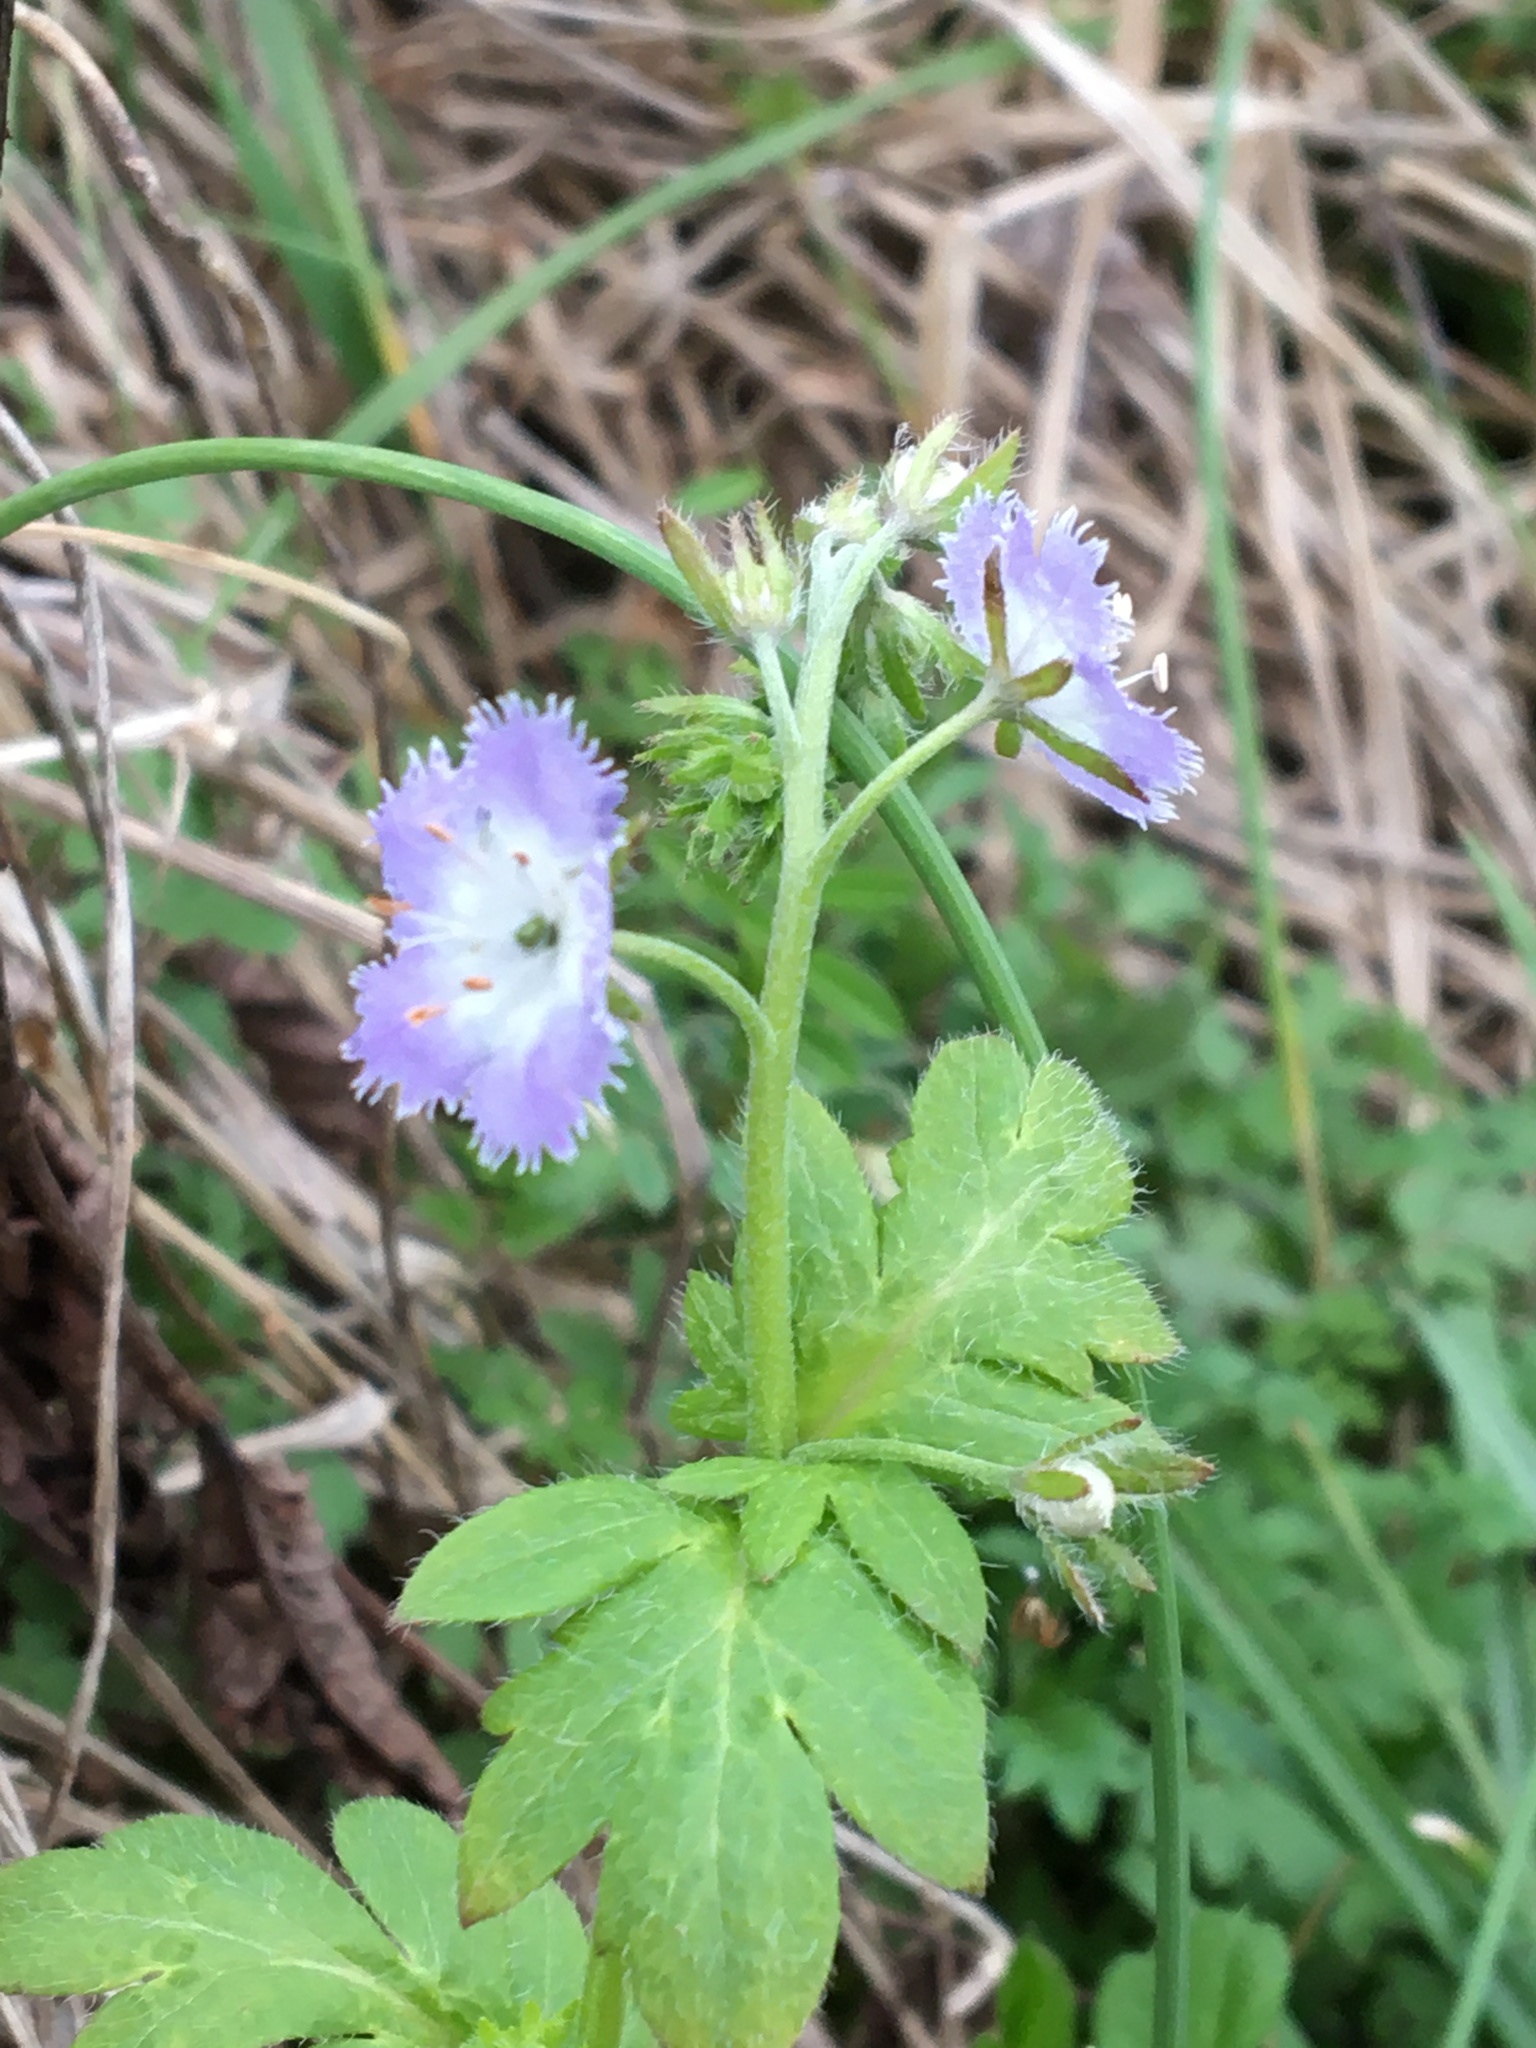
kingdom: Plantae
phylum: Tracheophyta
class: Magnoliopsida
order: Boraginales
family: Hydrophyllaceae
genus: Phacelia
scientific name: Phacelia purshii
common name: Miami-mist
